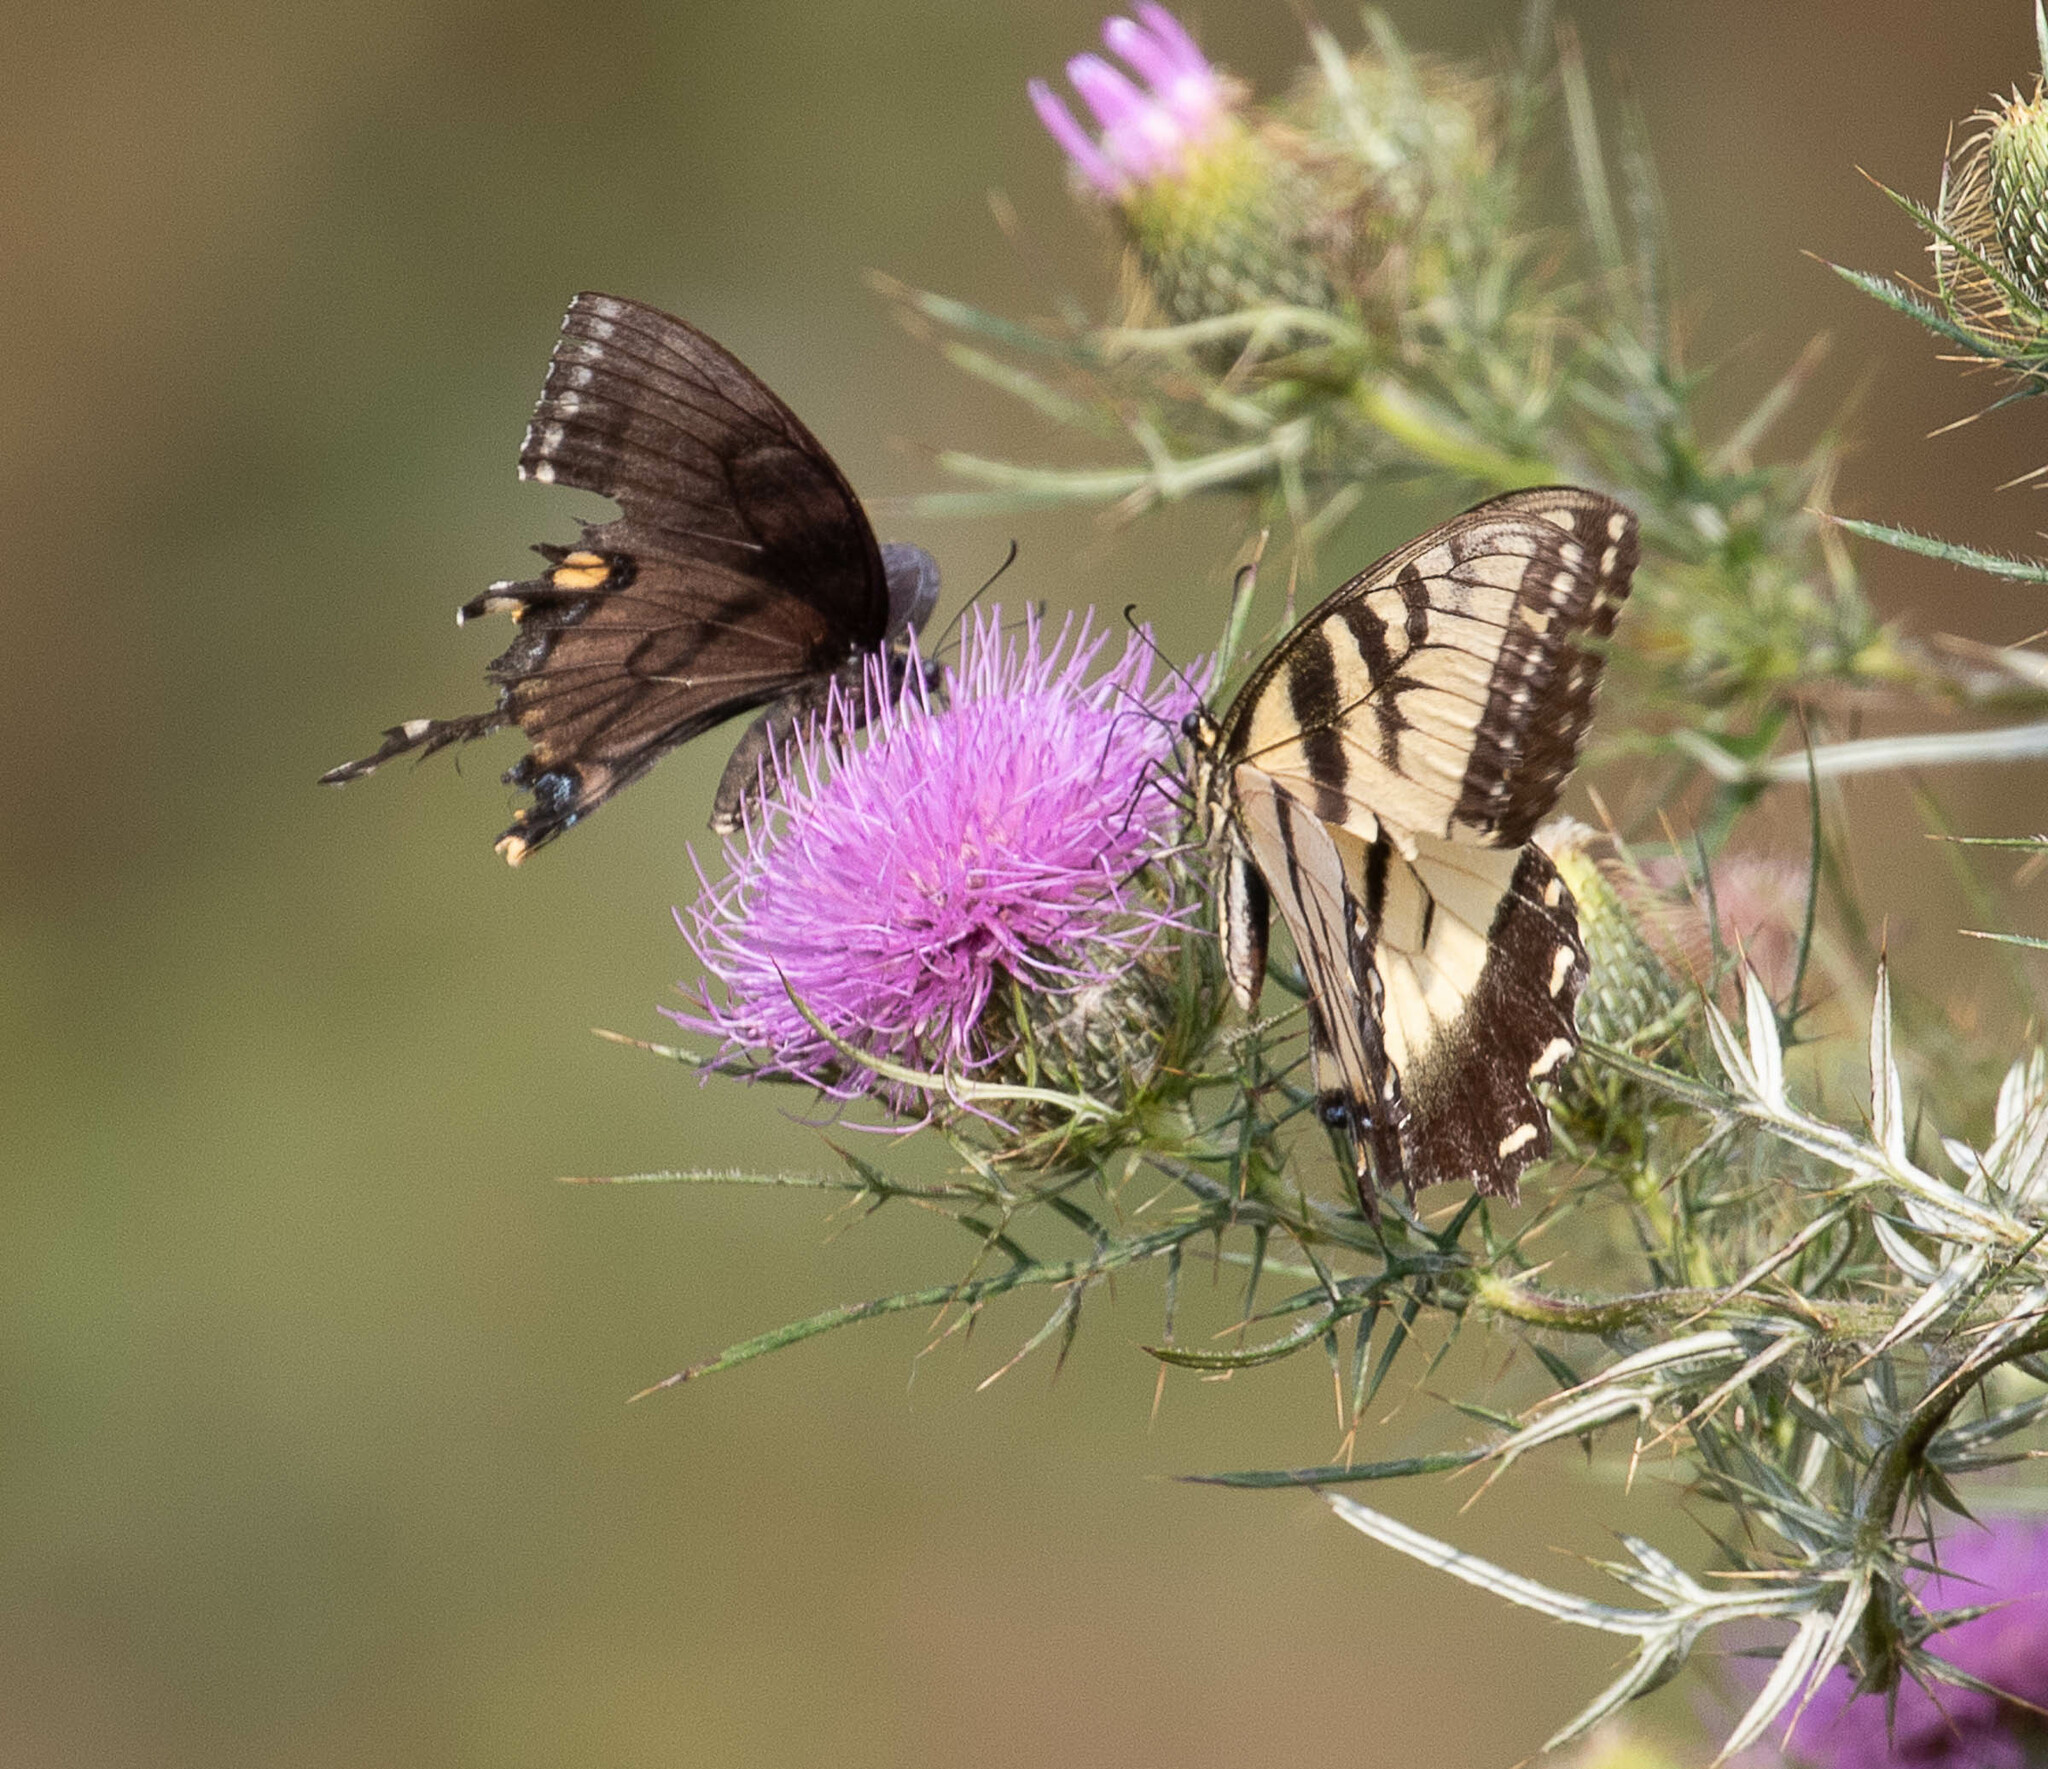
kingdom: Animalia
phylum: Arthropoda
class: Insecta
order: Lepidoptera
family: Papilionidae
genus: Papilio
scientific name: Papilio glaucus
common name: Tiger swallowtail
